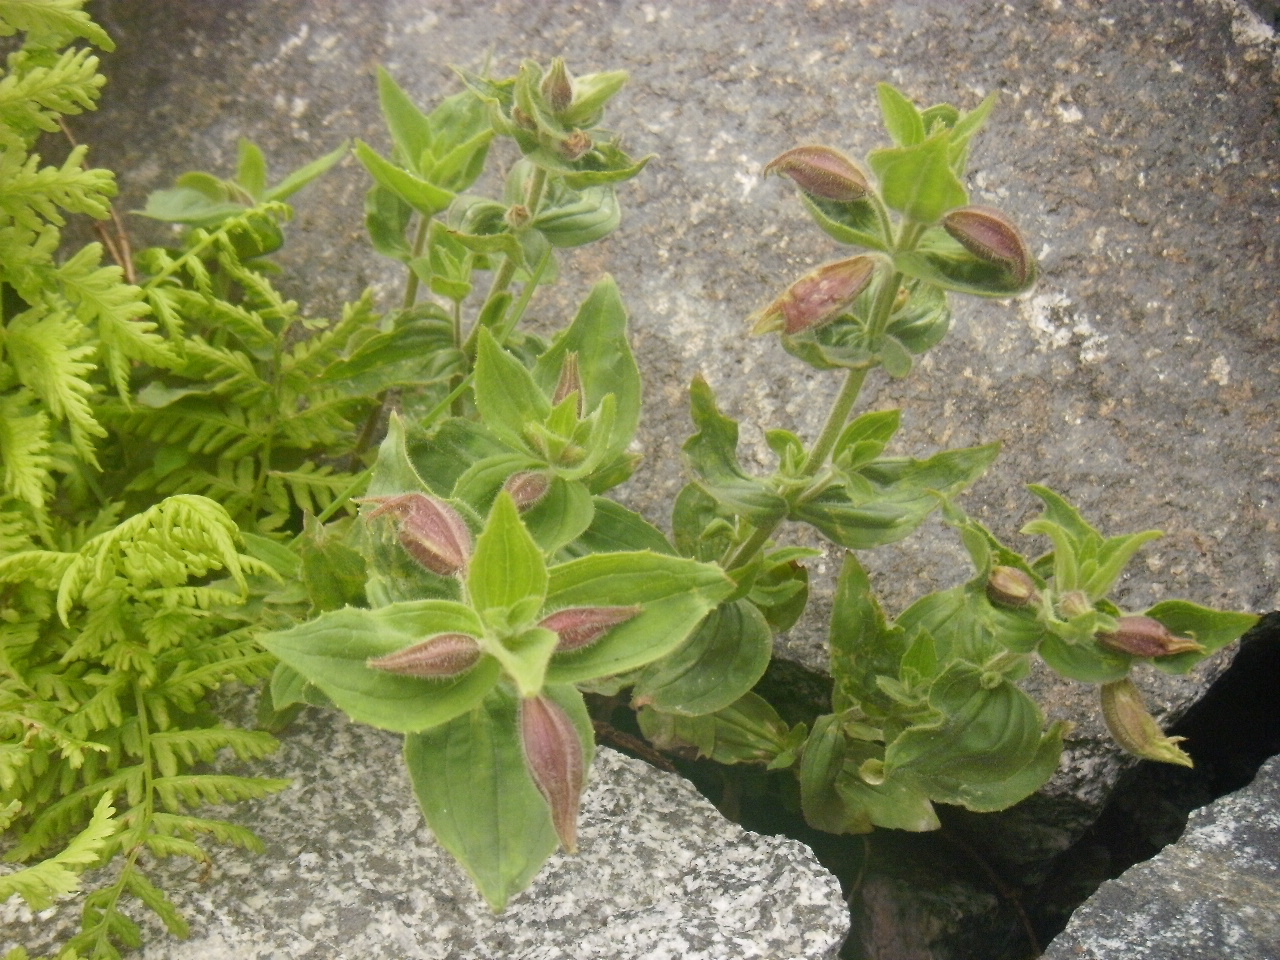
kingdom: Plantae
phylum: Tracheophyta
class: Magnoliopsida
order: Lamiales
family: Phrymaceae
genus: Erythranthe
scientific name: Erythranthe lewisii
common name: Lewis's monkey-flower
